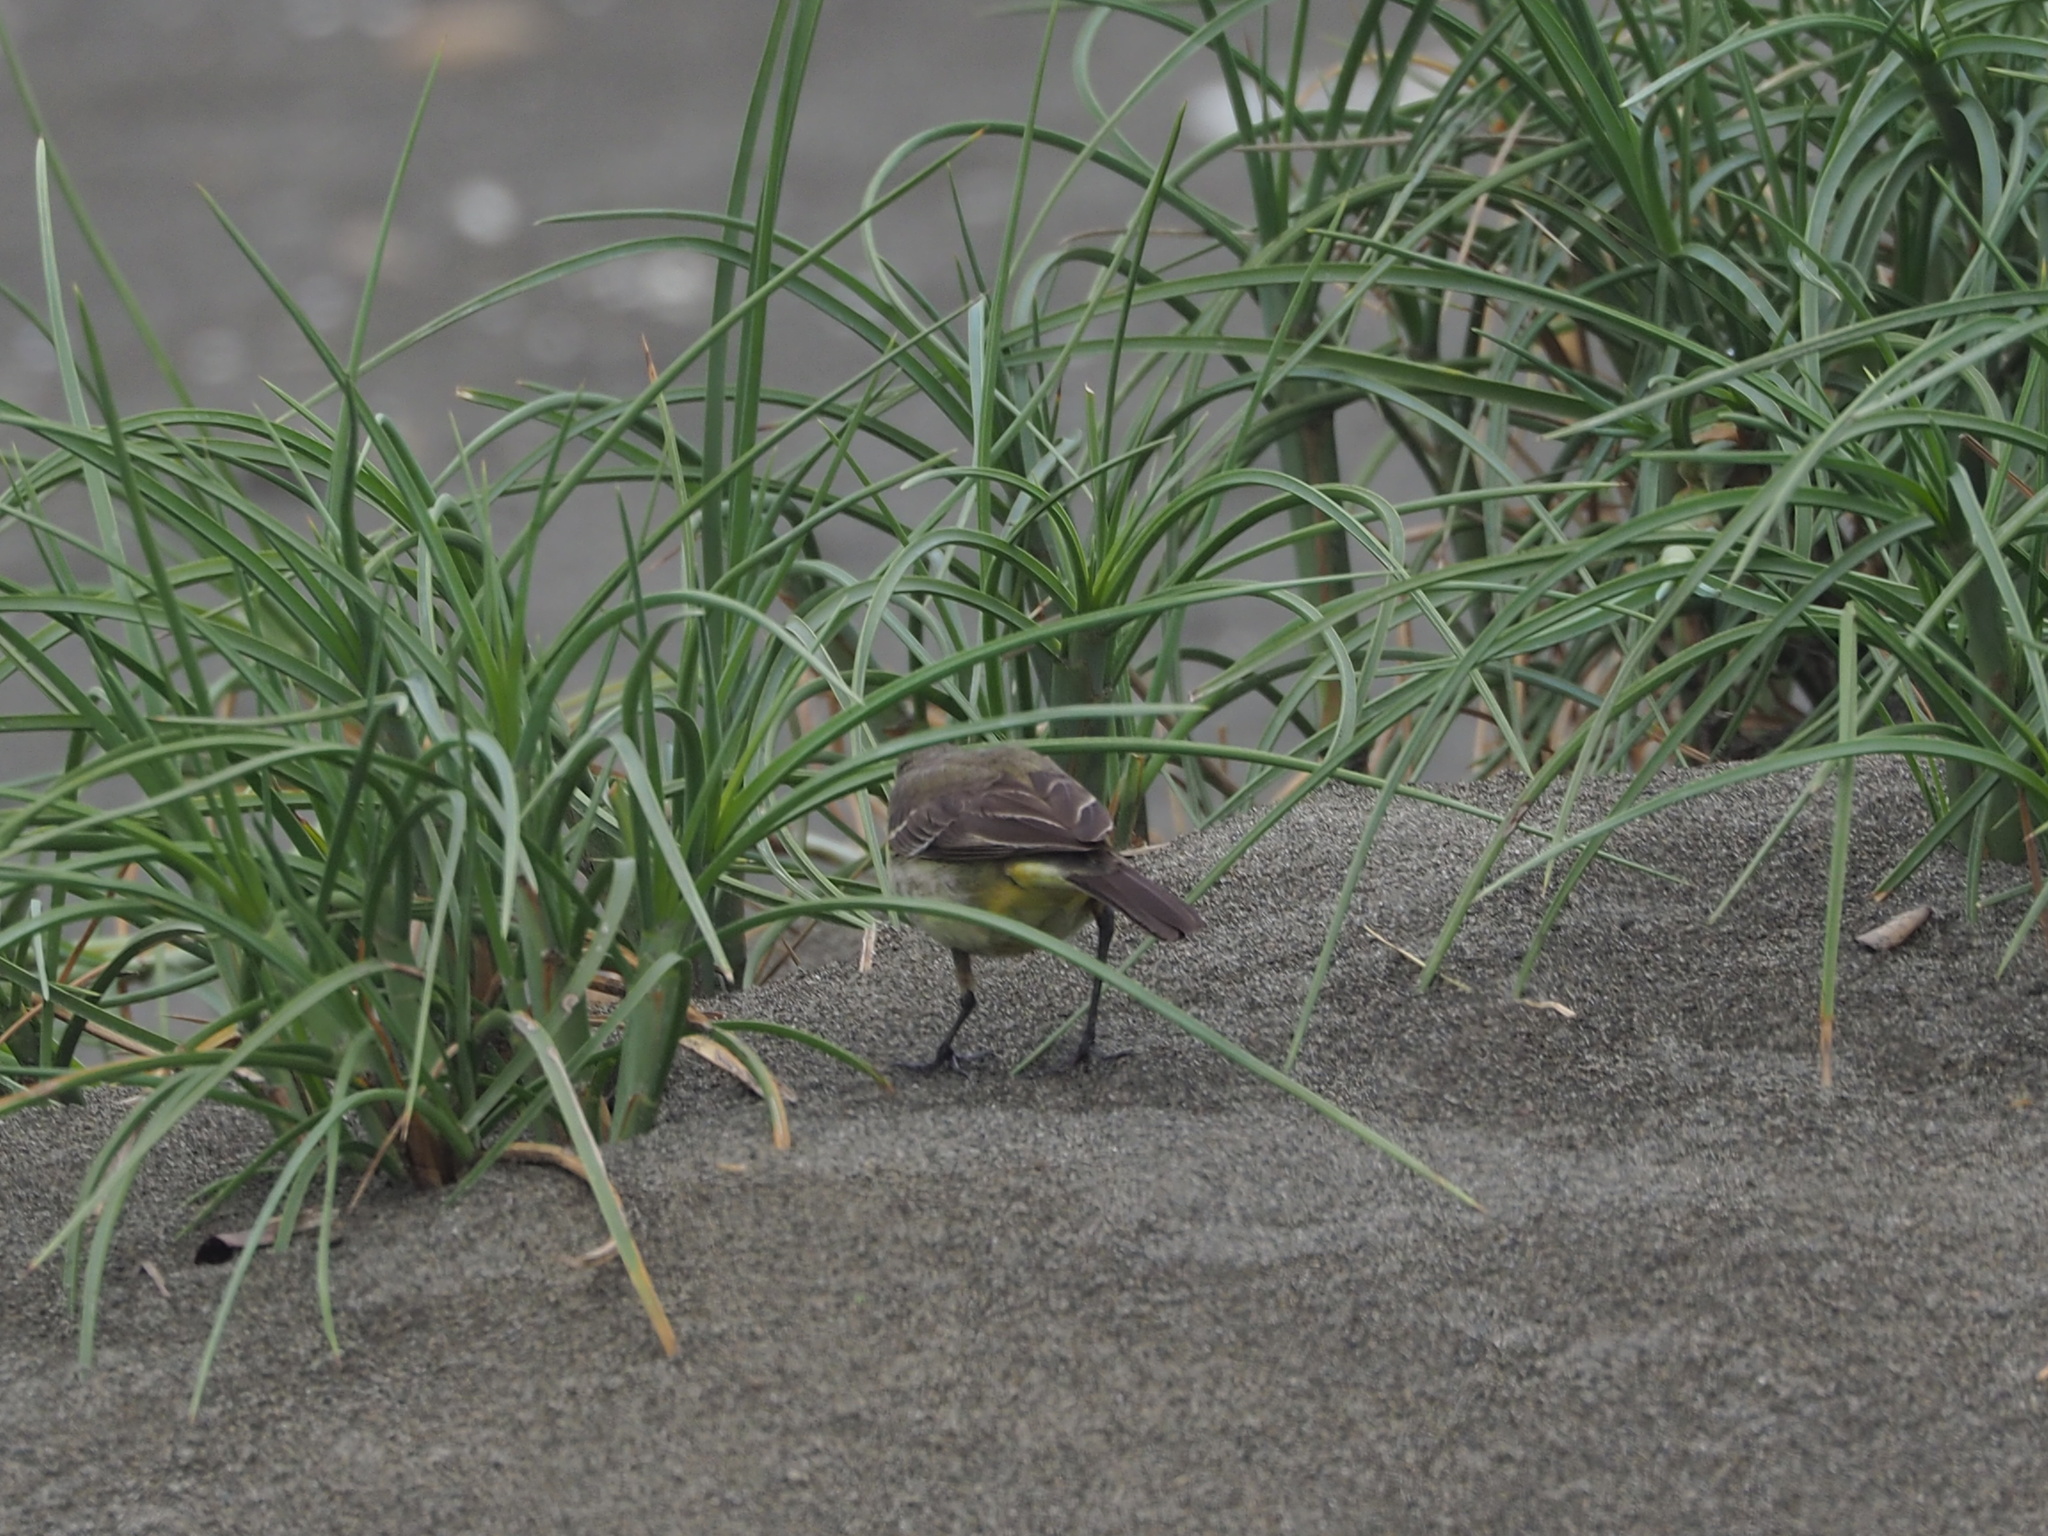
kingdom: Animalia
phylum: Chordata
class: Aves
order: Passeriformes
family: Motacillidae
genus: Motacilla
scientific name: Motacilla tschutschensis
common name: Eastern yellow wagtail
